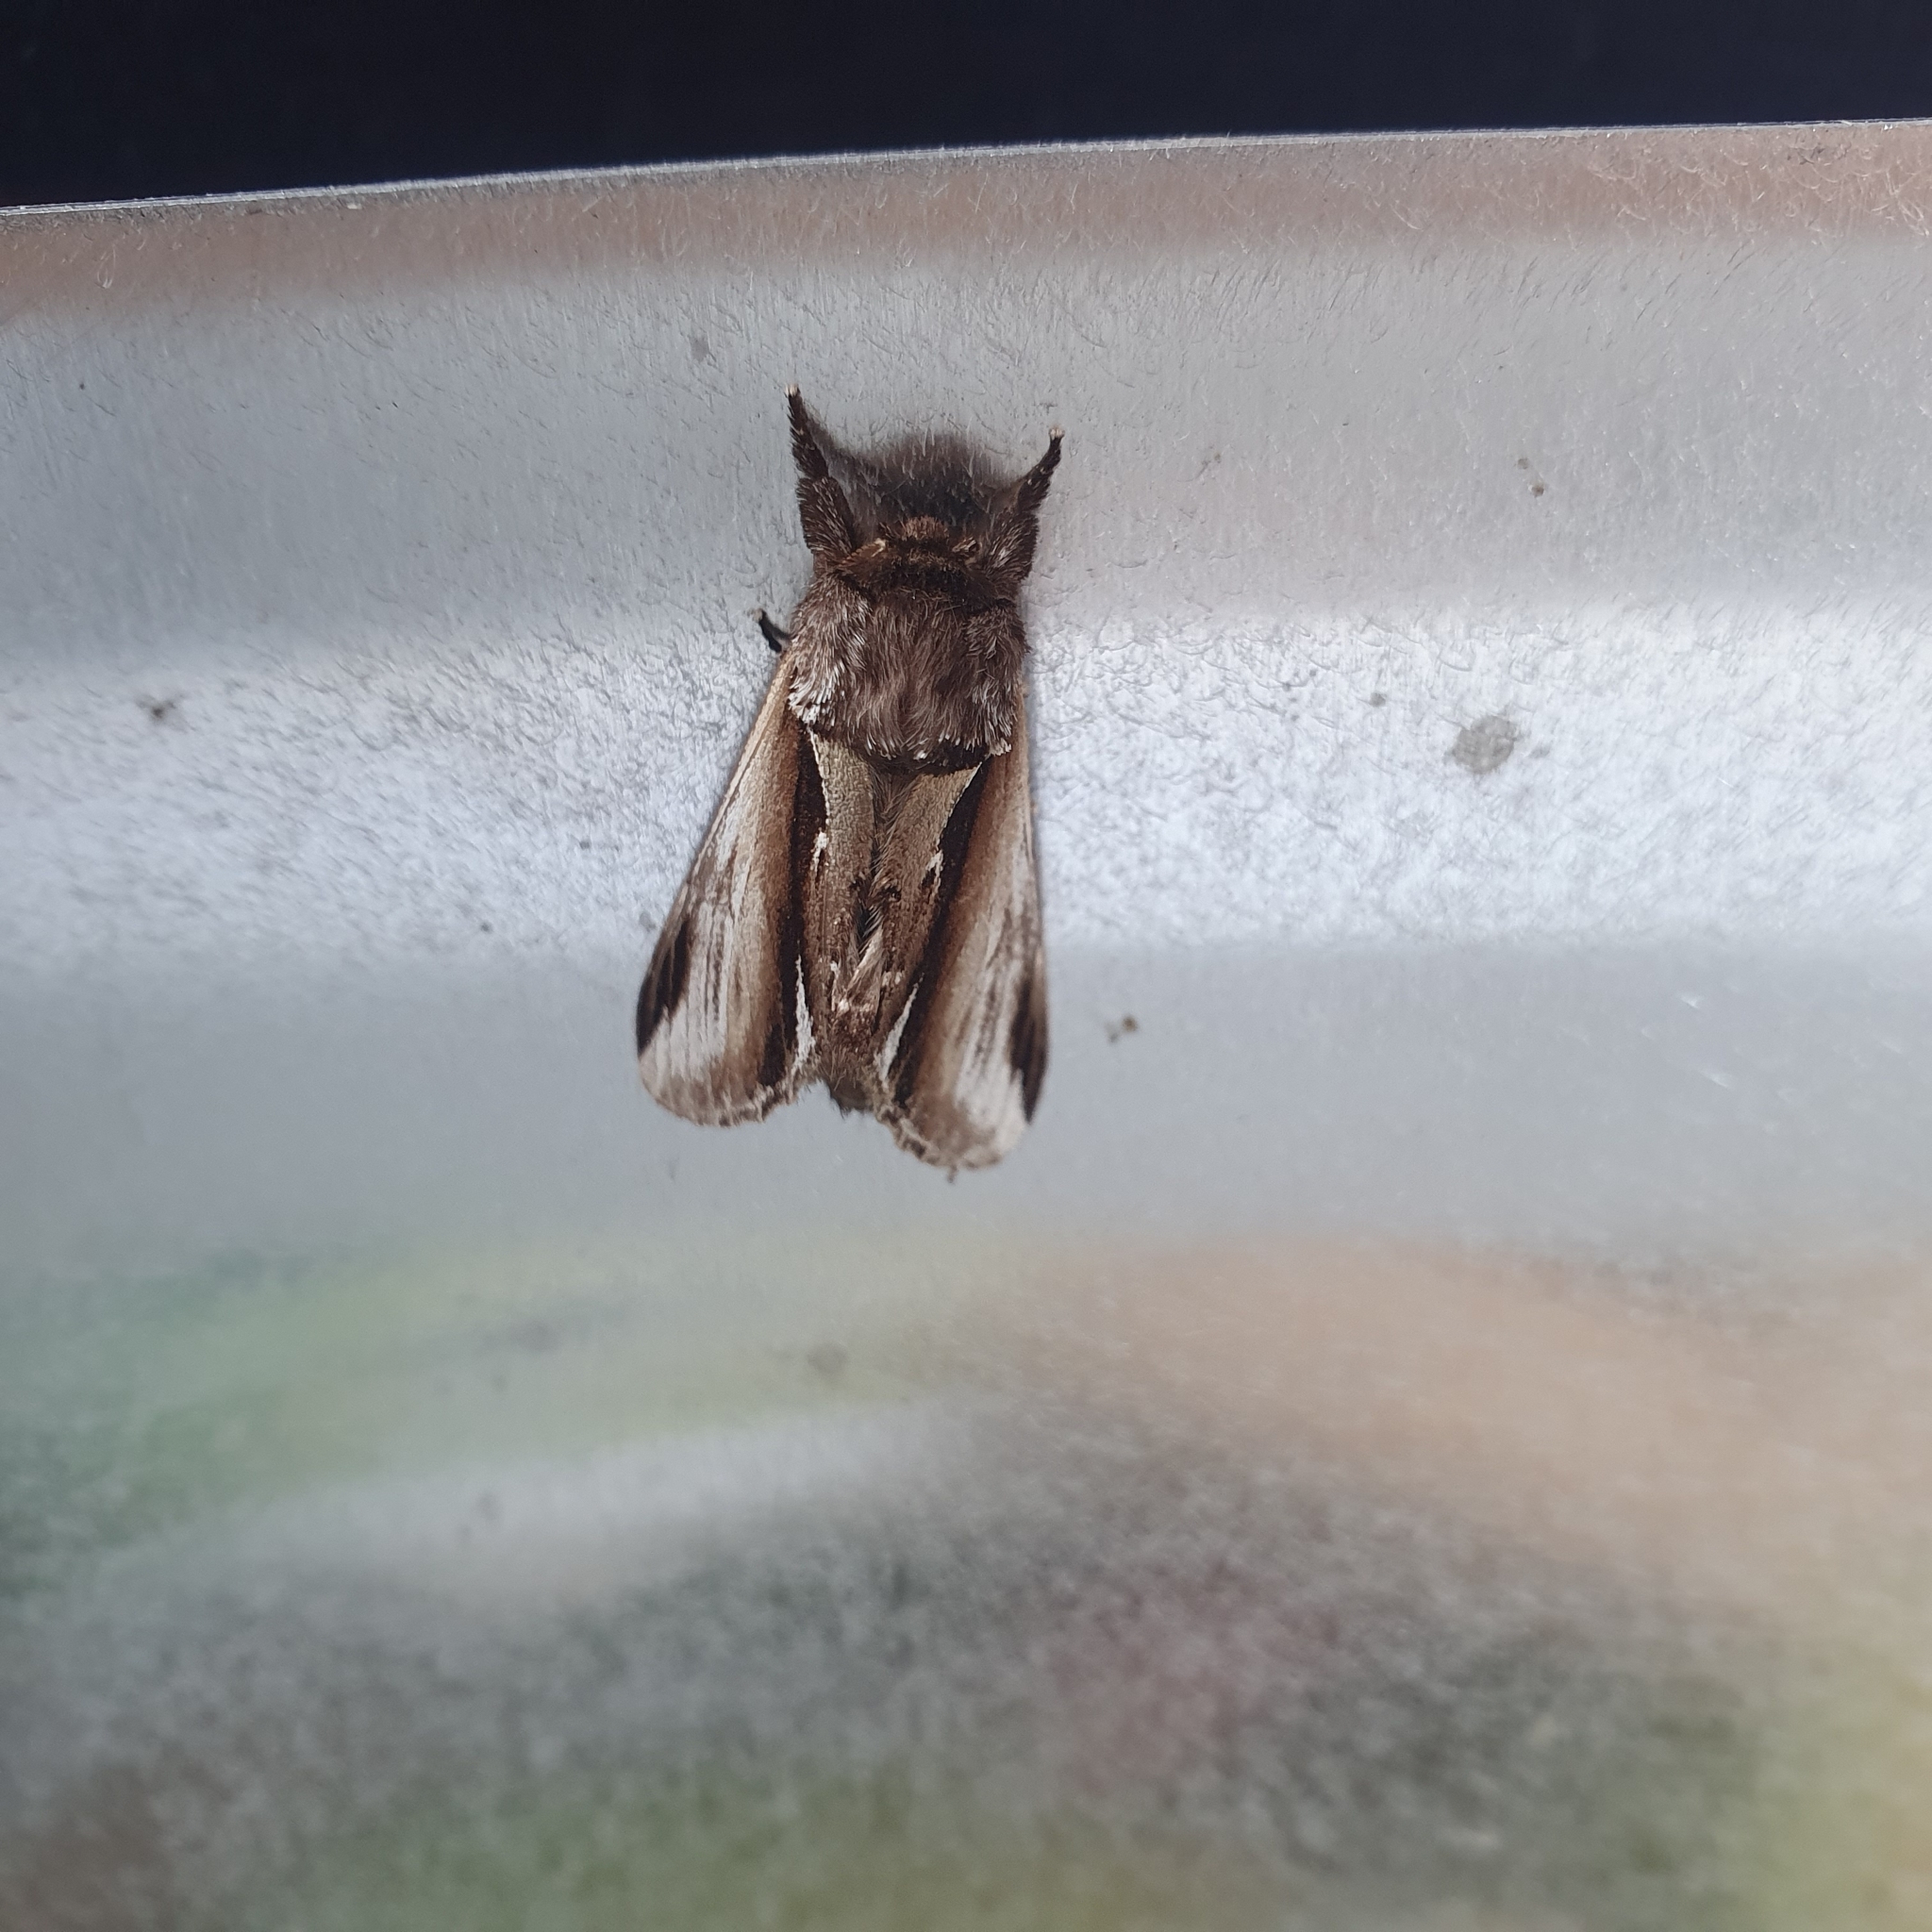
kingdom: Animalia
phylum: Arthropoda
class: Insecta
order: Lepidoptera
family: Notodontidae
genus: Pheosia
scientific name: Pheosia gnoma
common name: Lesser swallow prominent
